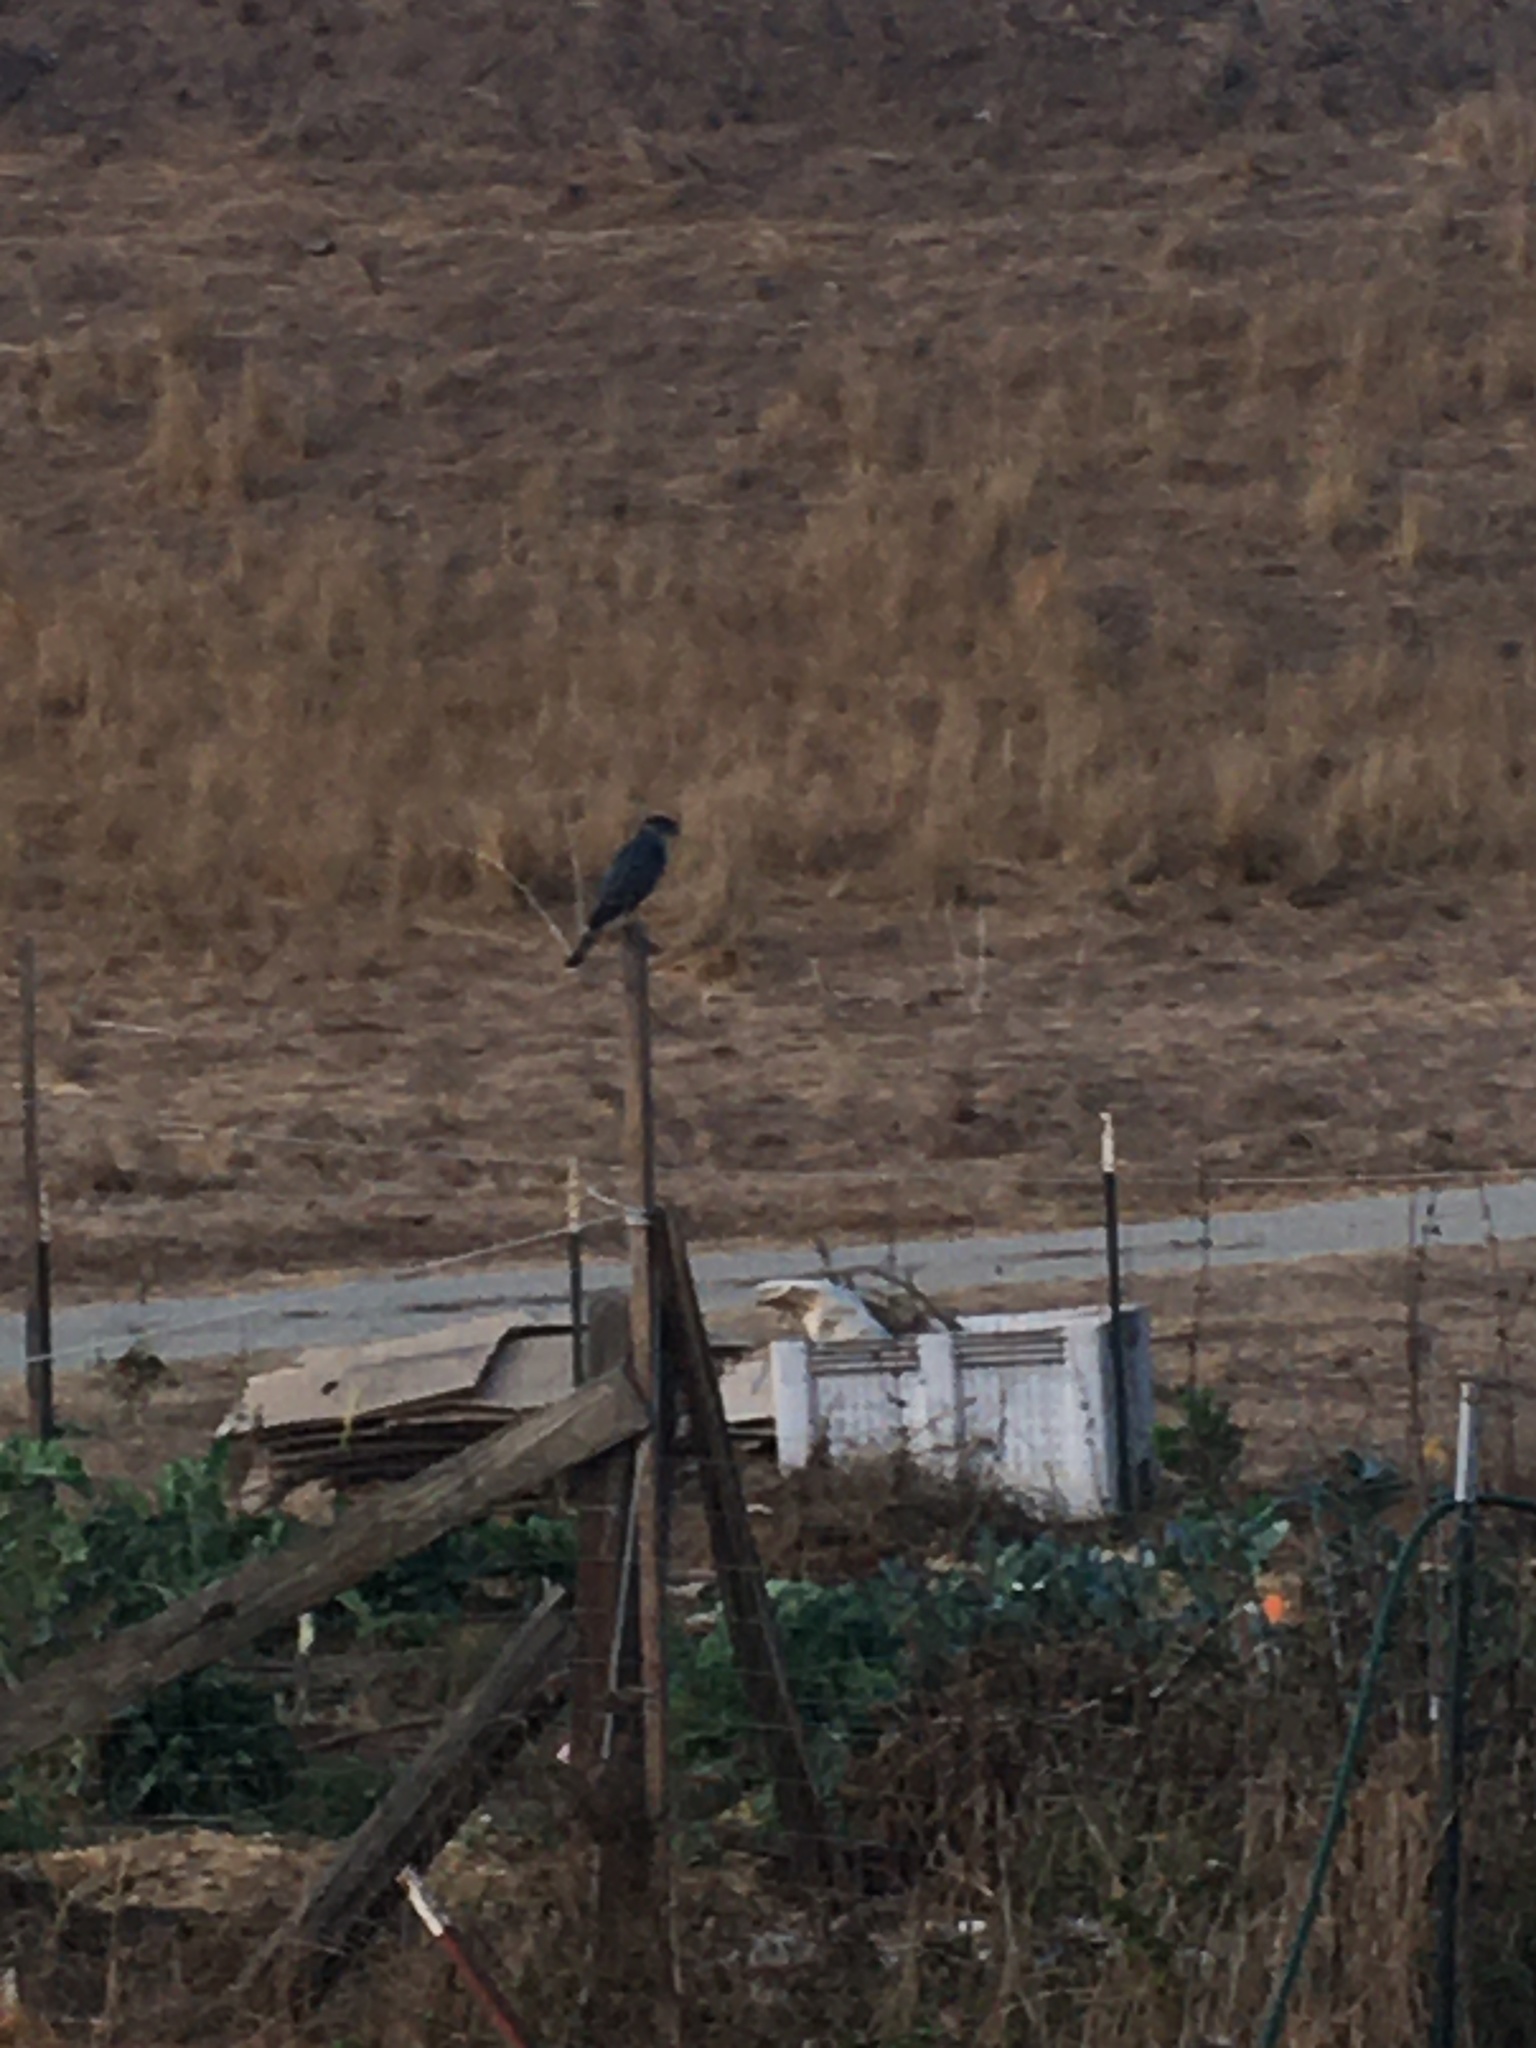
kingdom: Animalia
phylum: Chordata
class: Aves
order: Accipitriformes
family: Accipitridae
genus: Accipiter
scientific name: Accipiter cooperii
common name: Cooper's hawk
